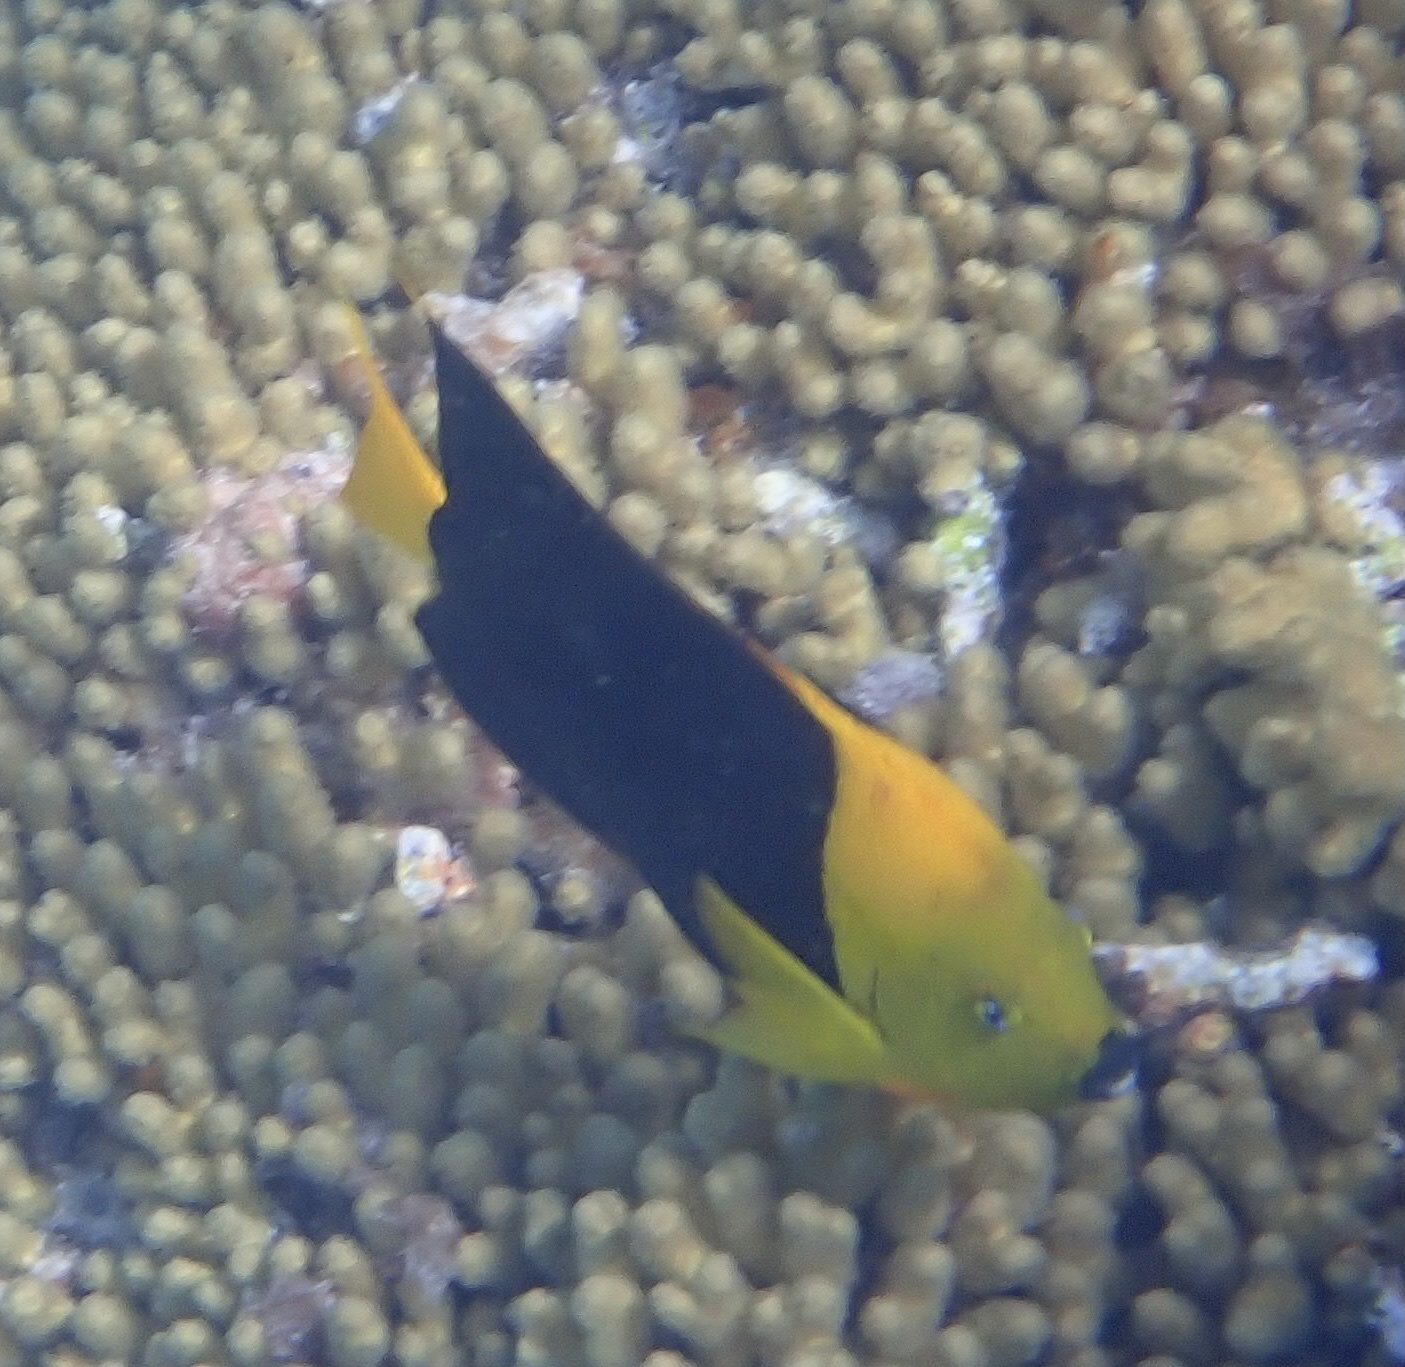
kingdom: Animalia
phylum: Chordata
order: Perciformes
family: Pomacanthidae
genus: Holacanthus
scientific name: Holacanthus tricolor
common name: Rock beauty
